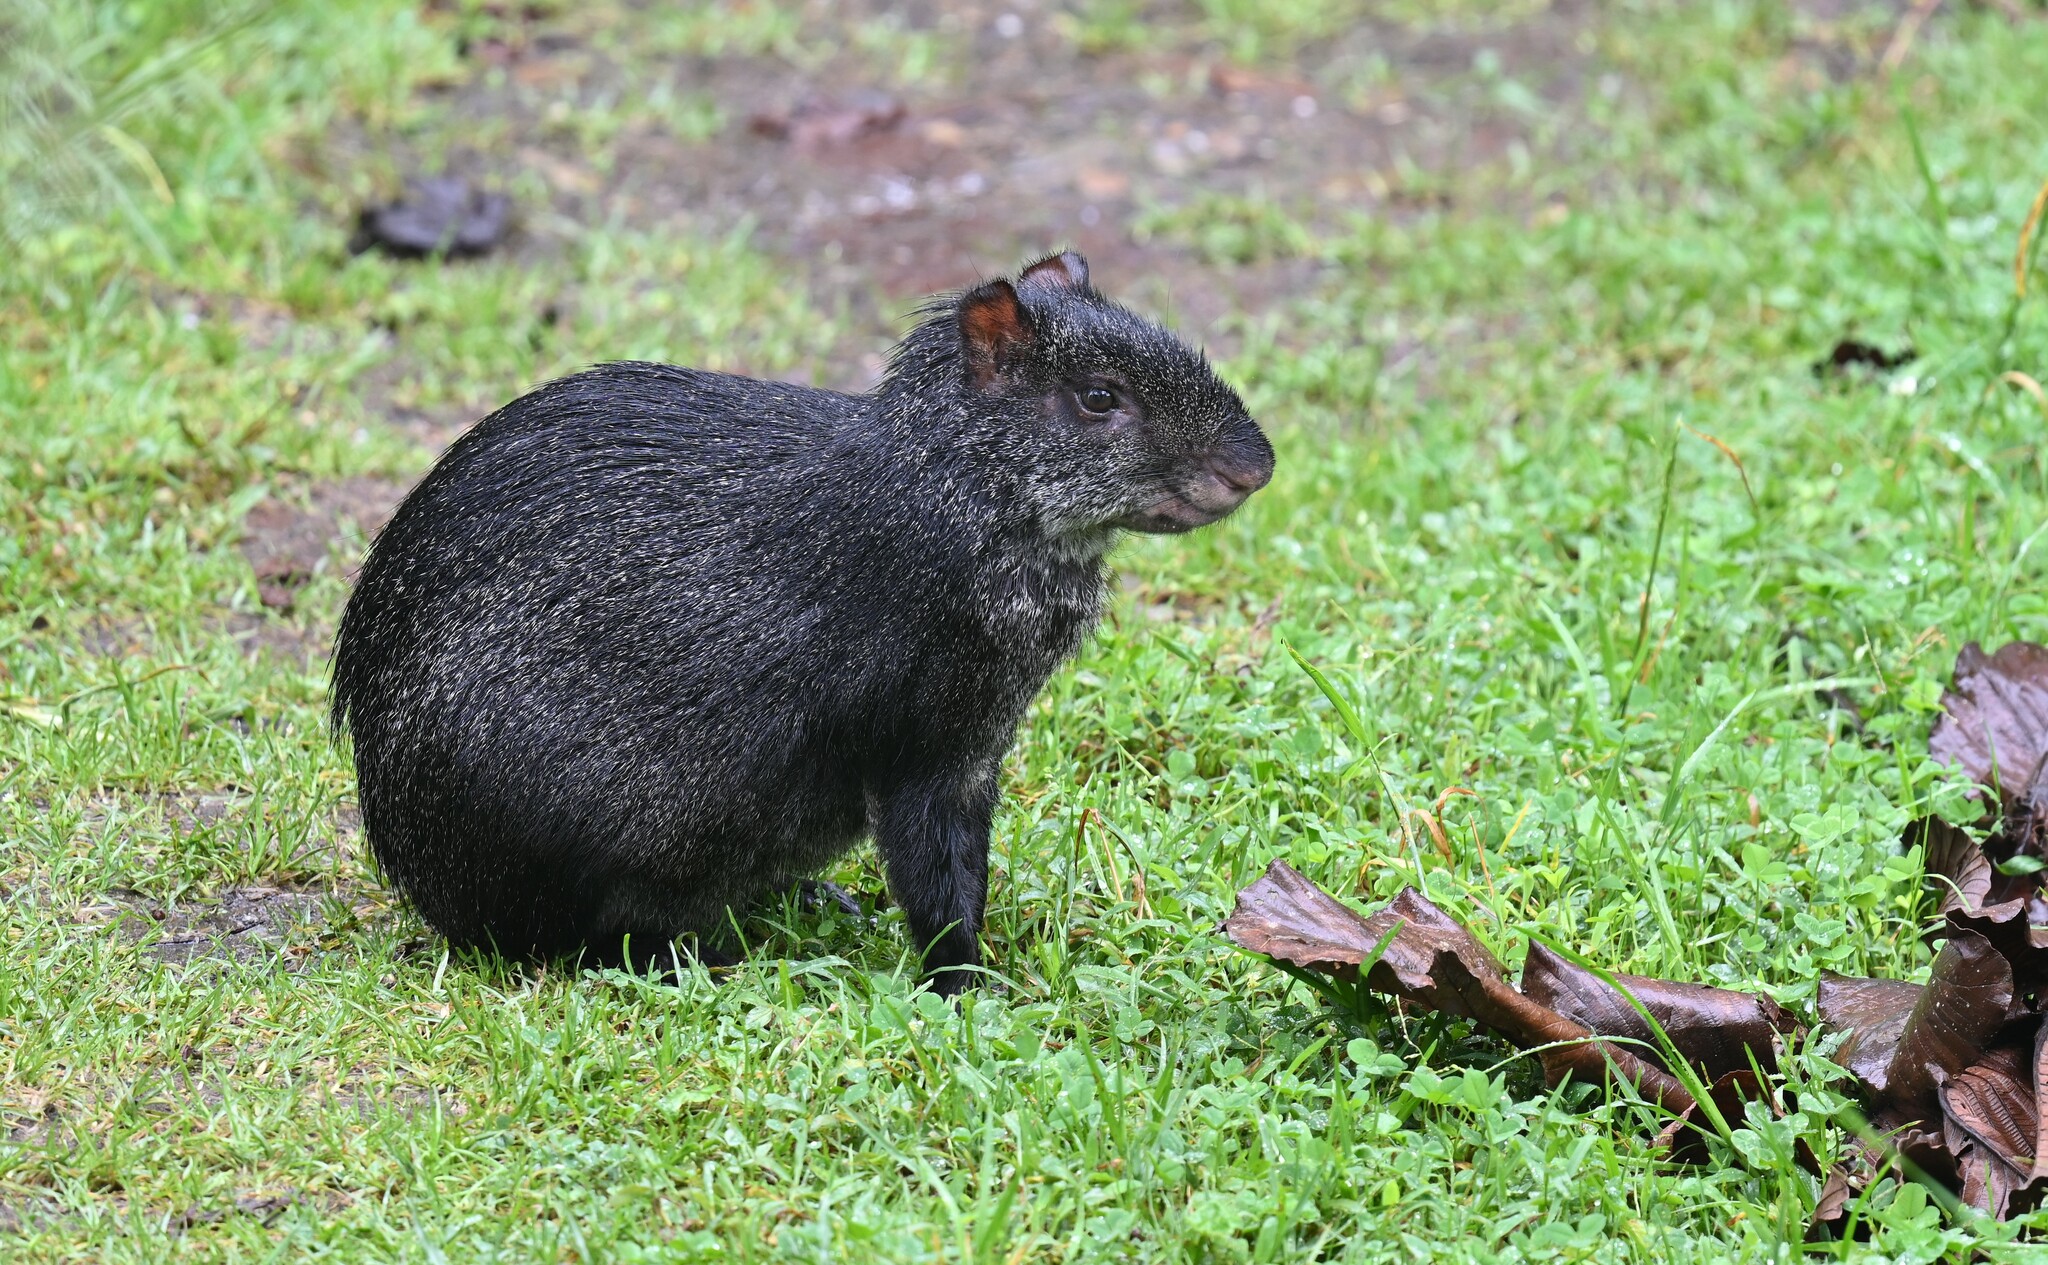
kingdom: Animalia
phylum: Chordata
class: Mammalia
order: Rodentia
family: Dasyproctidae
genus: Dasyprocta
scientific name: Dasyprocta fuliginosa
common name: Black agouti
